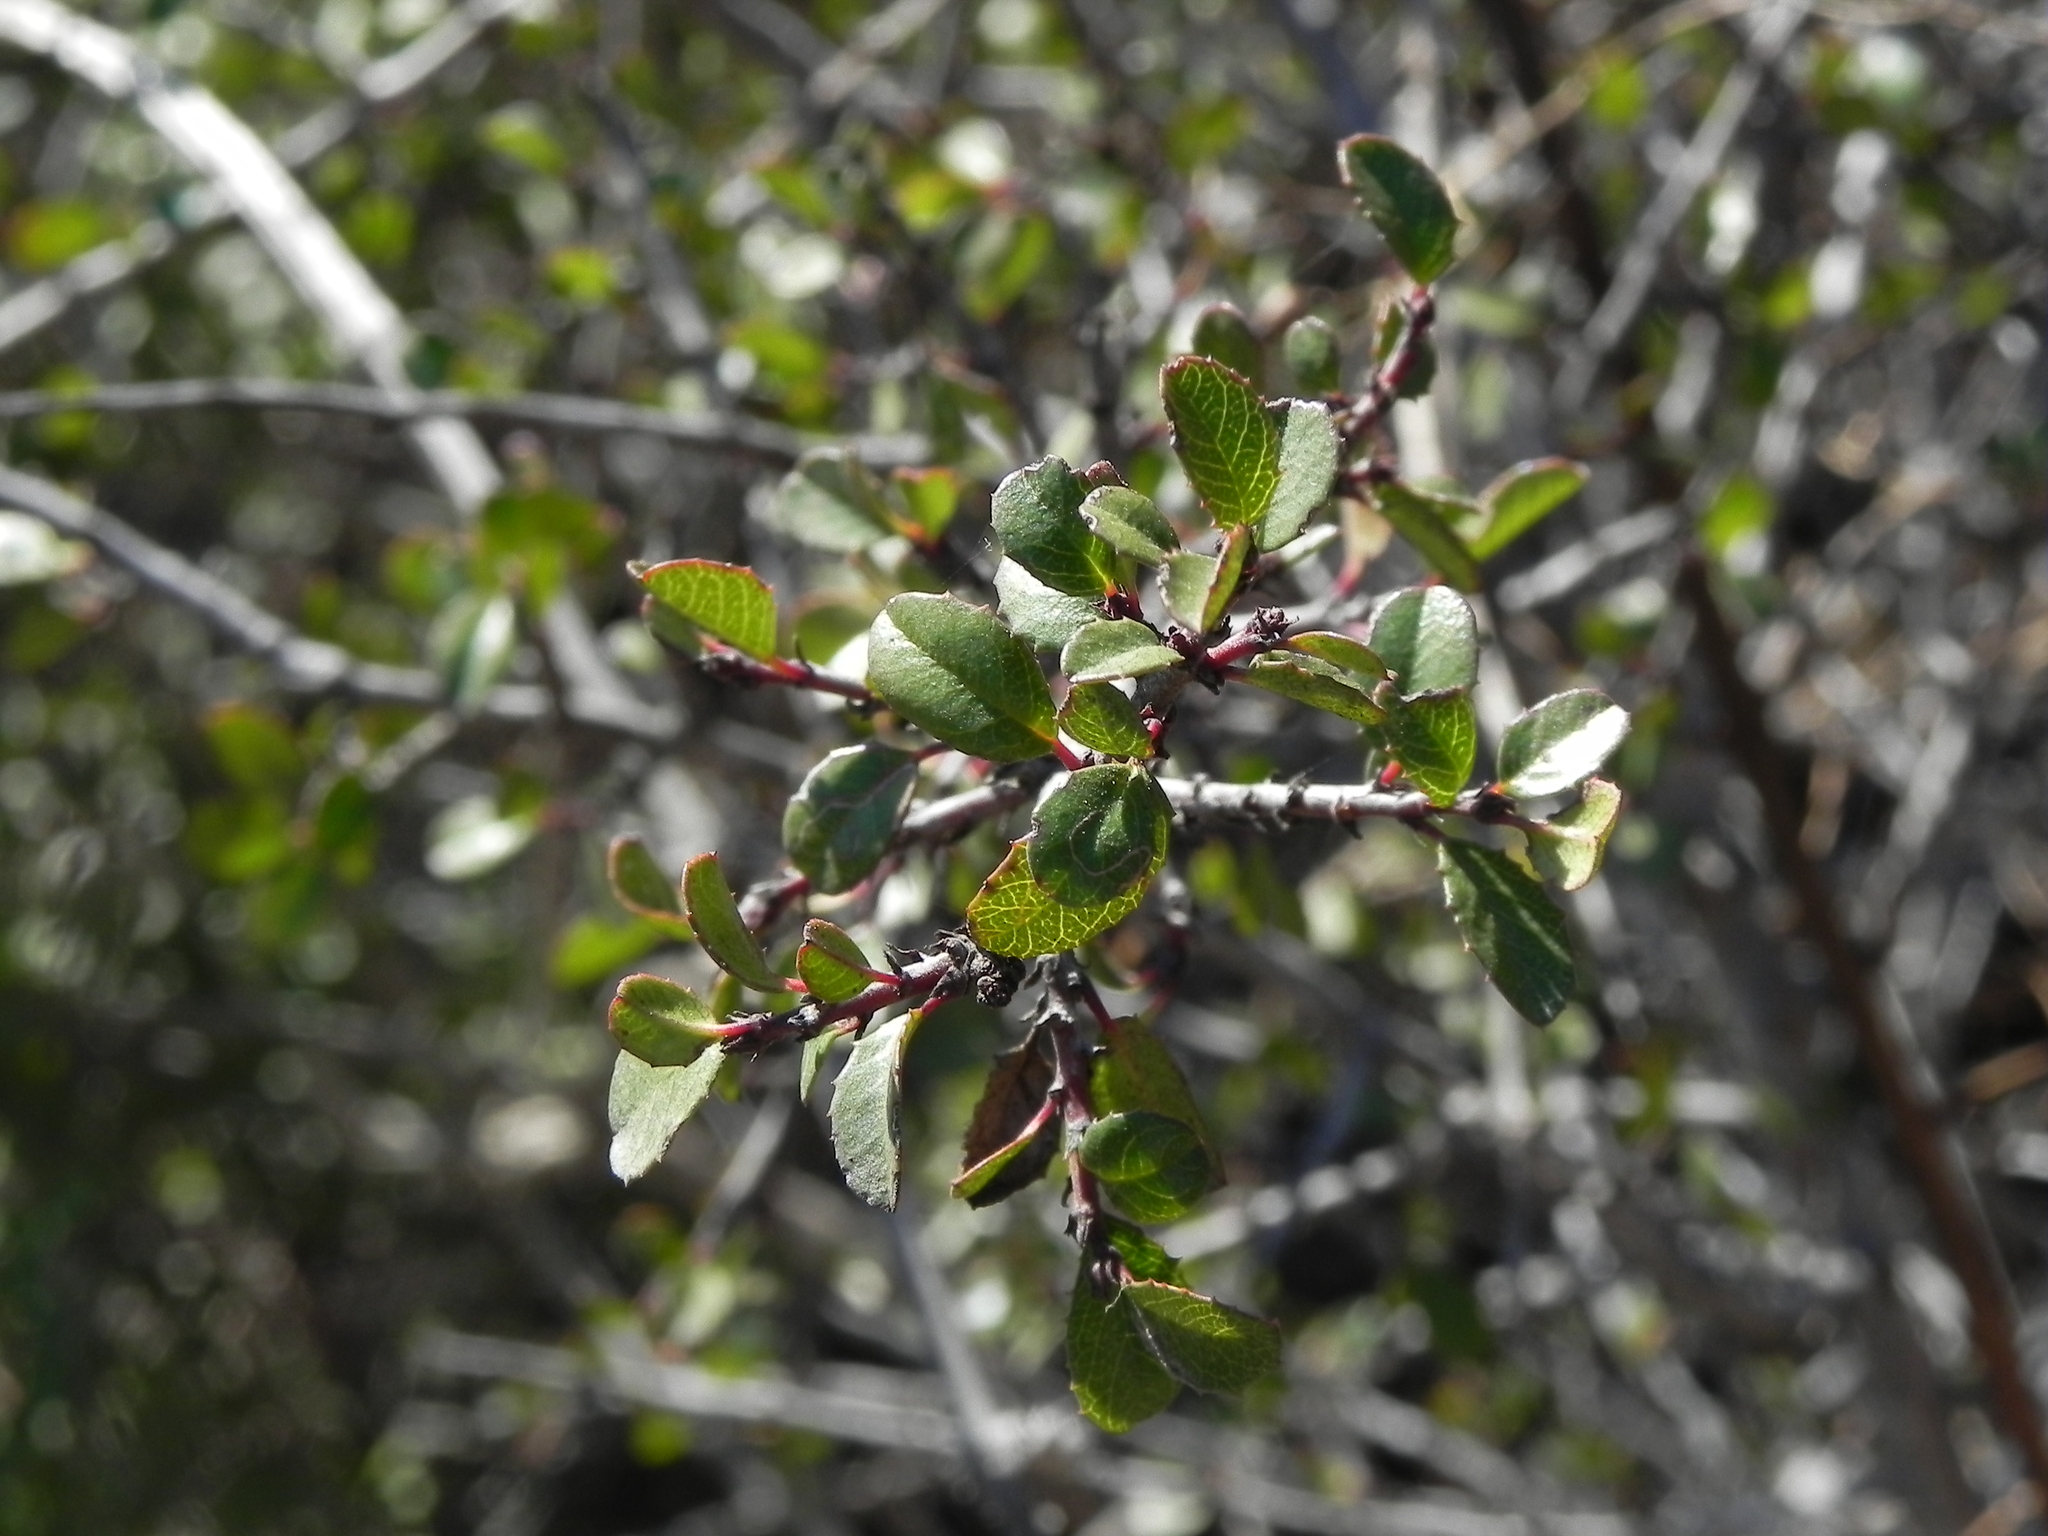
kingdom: Plantae
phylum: Tracheophyta
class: Magnoliopsida
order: Rosales
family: Rhamnaceae
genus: Endotropis
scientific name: Endotropis crocea
